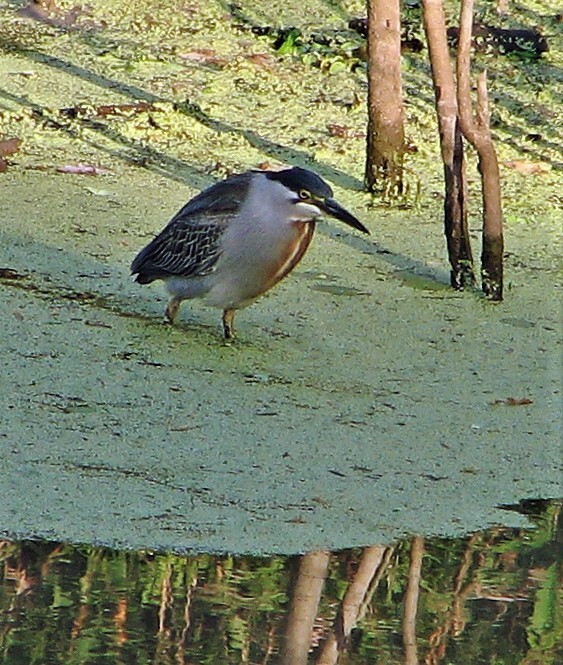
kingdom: Animalia
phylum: Chordata
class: Aves
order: Pelecaniformes
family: Ardeidae
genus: Butorides
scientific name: Butorides striata
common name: Striated heron
